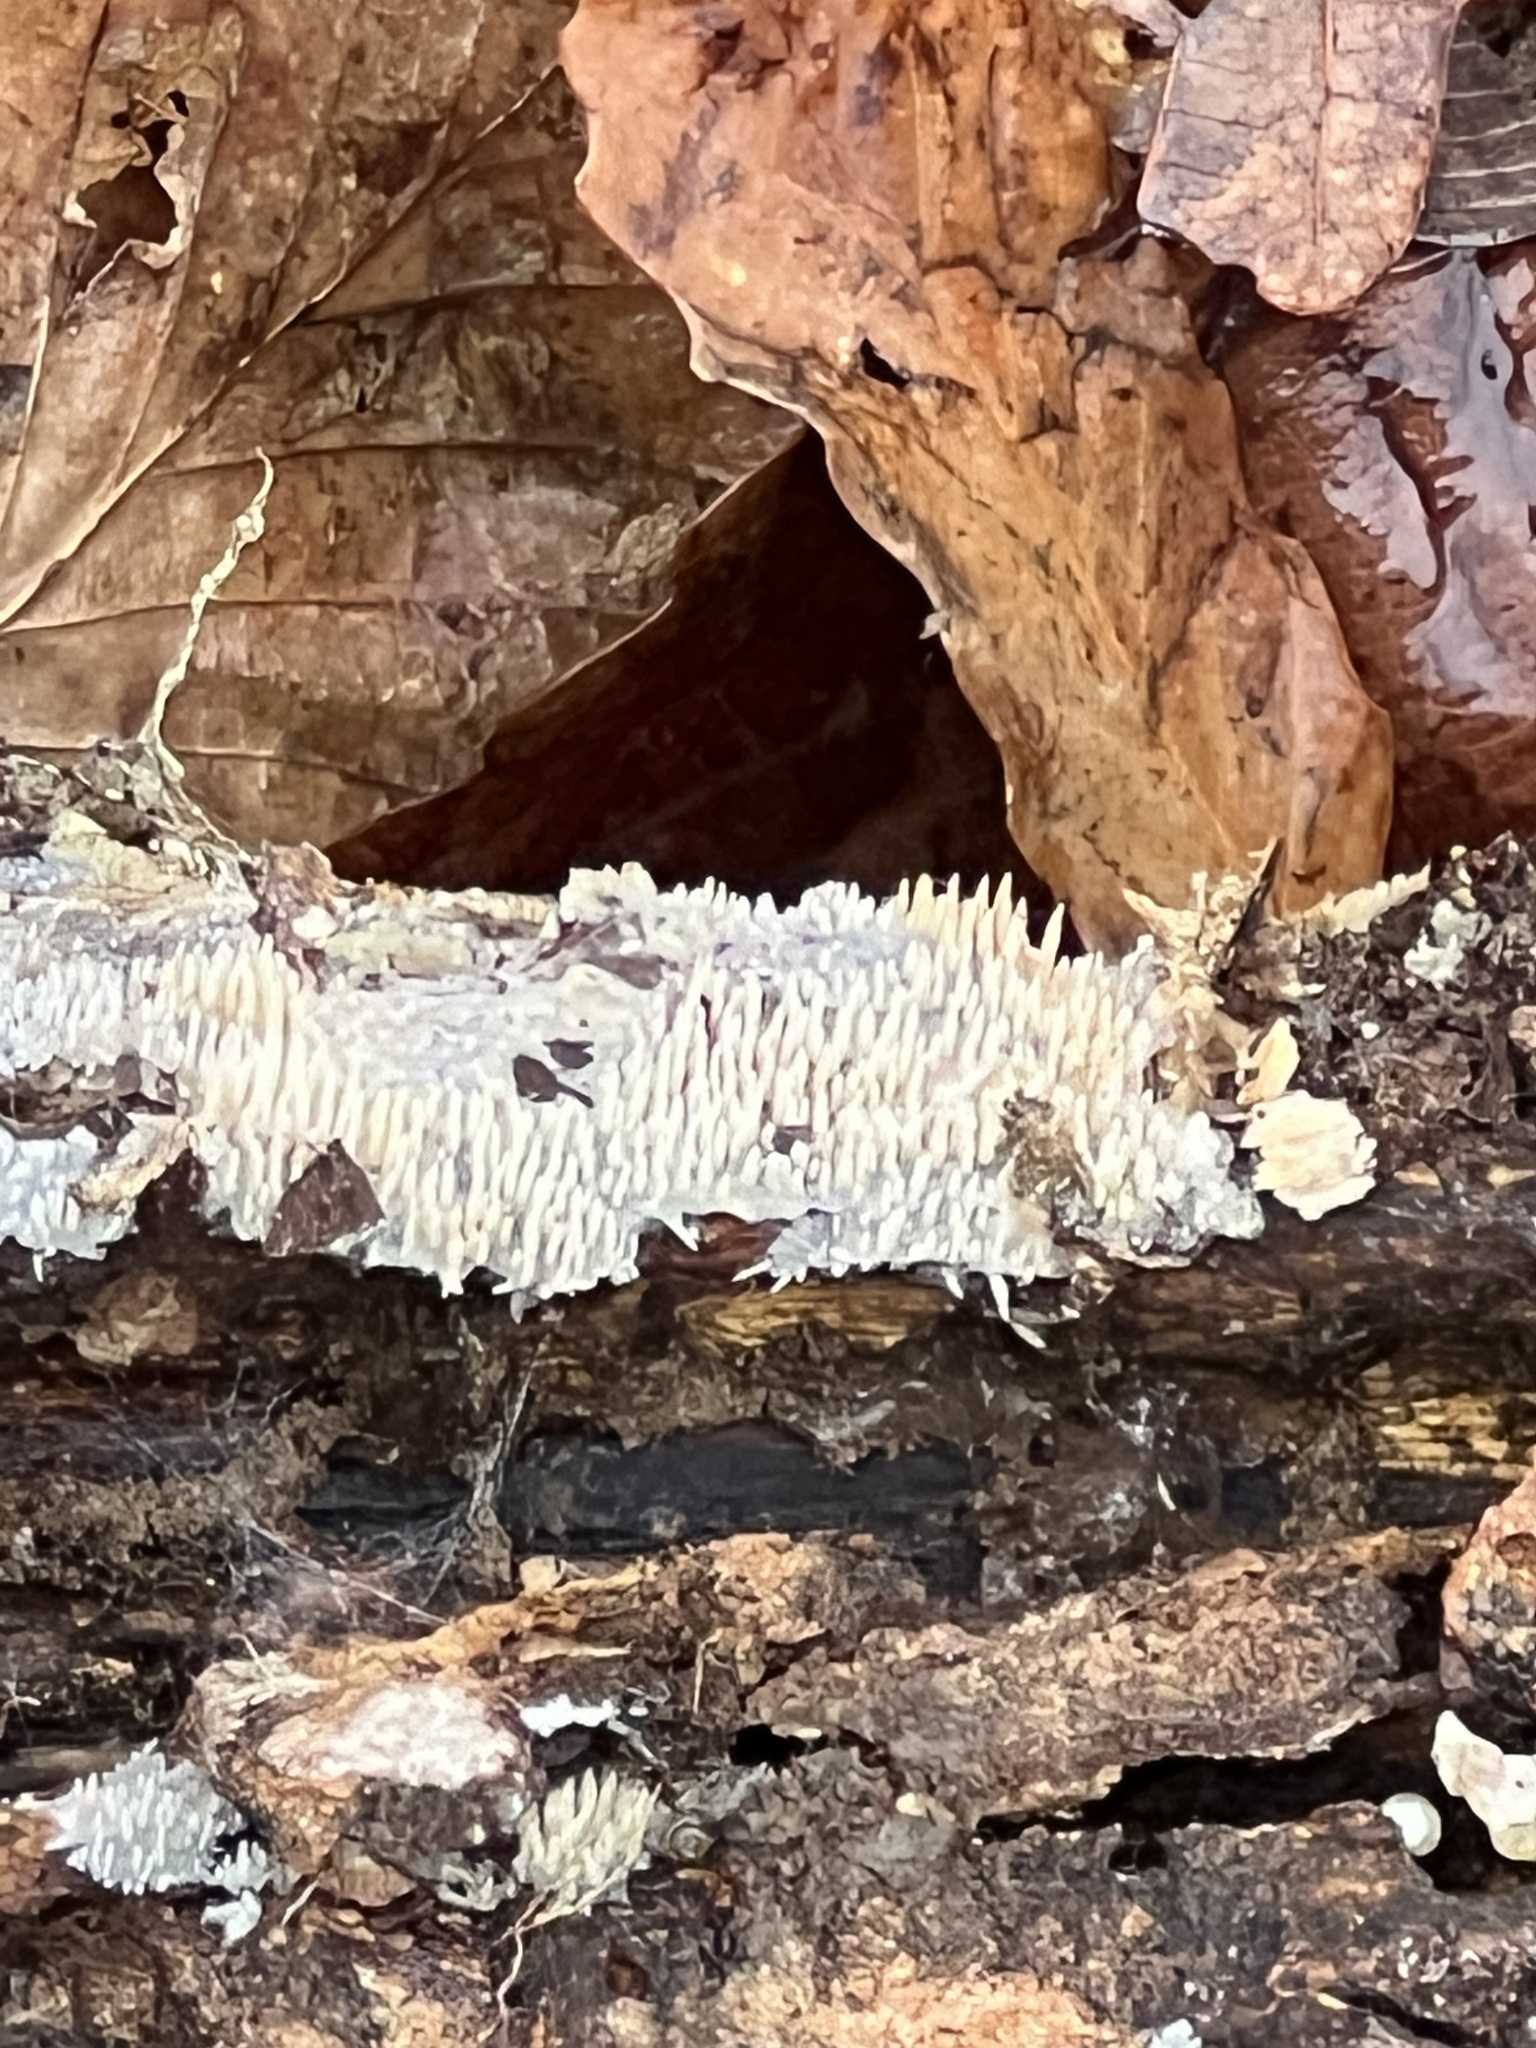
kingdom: Fungi
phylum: Basidiomycota
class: Agaricomycetes
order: Agaricales
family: Radulomycetaceae
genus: Radulomyces
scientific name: Radulomyces copelandii
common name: Asian beauty
